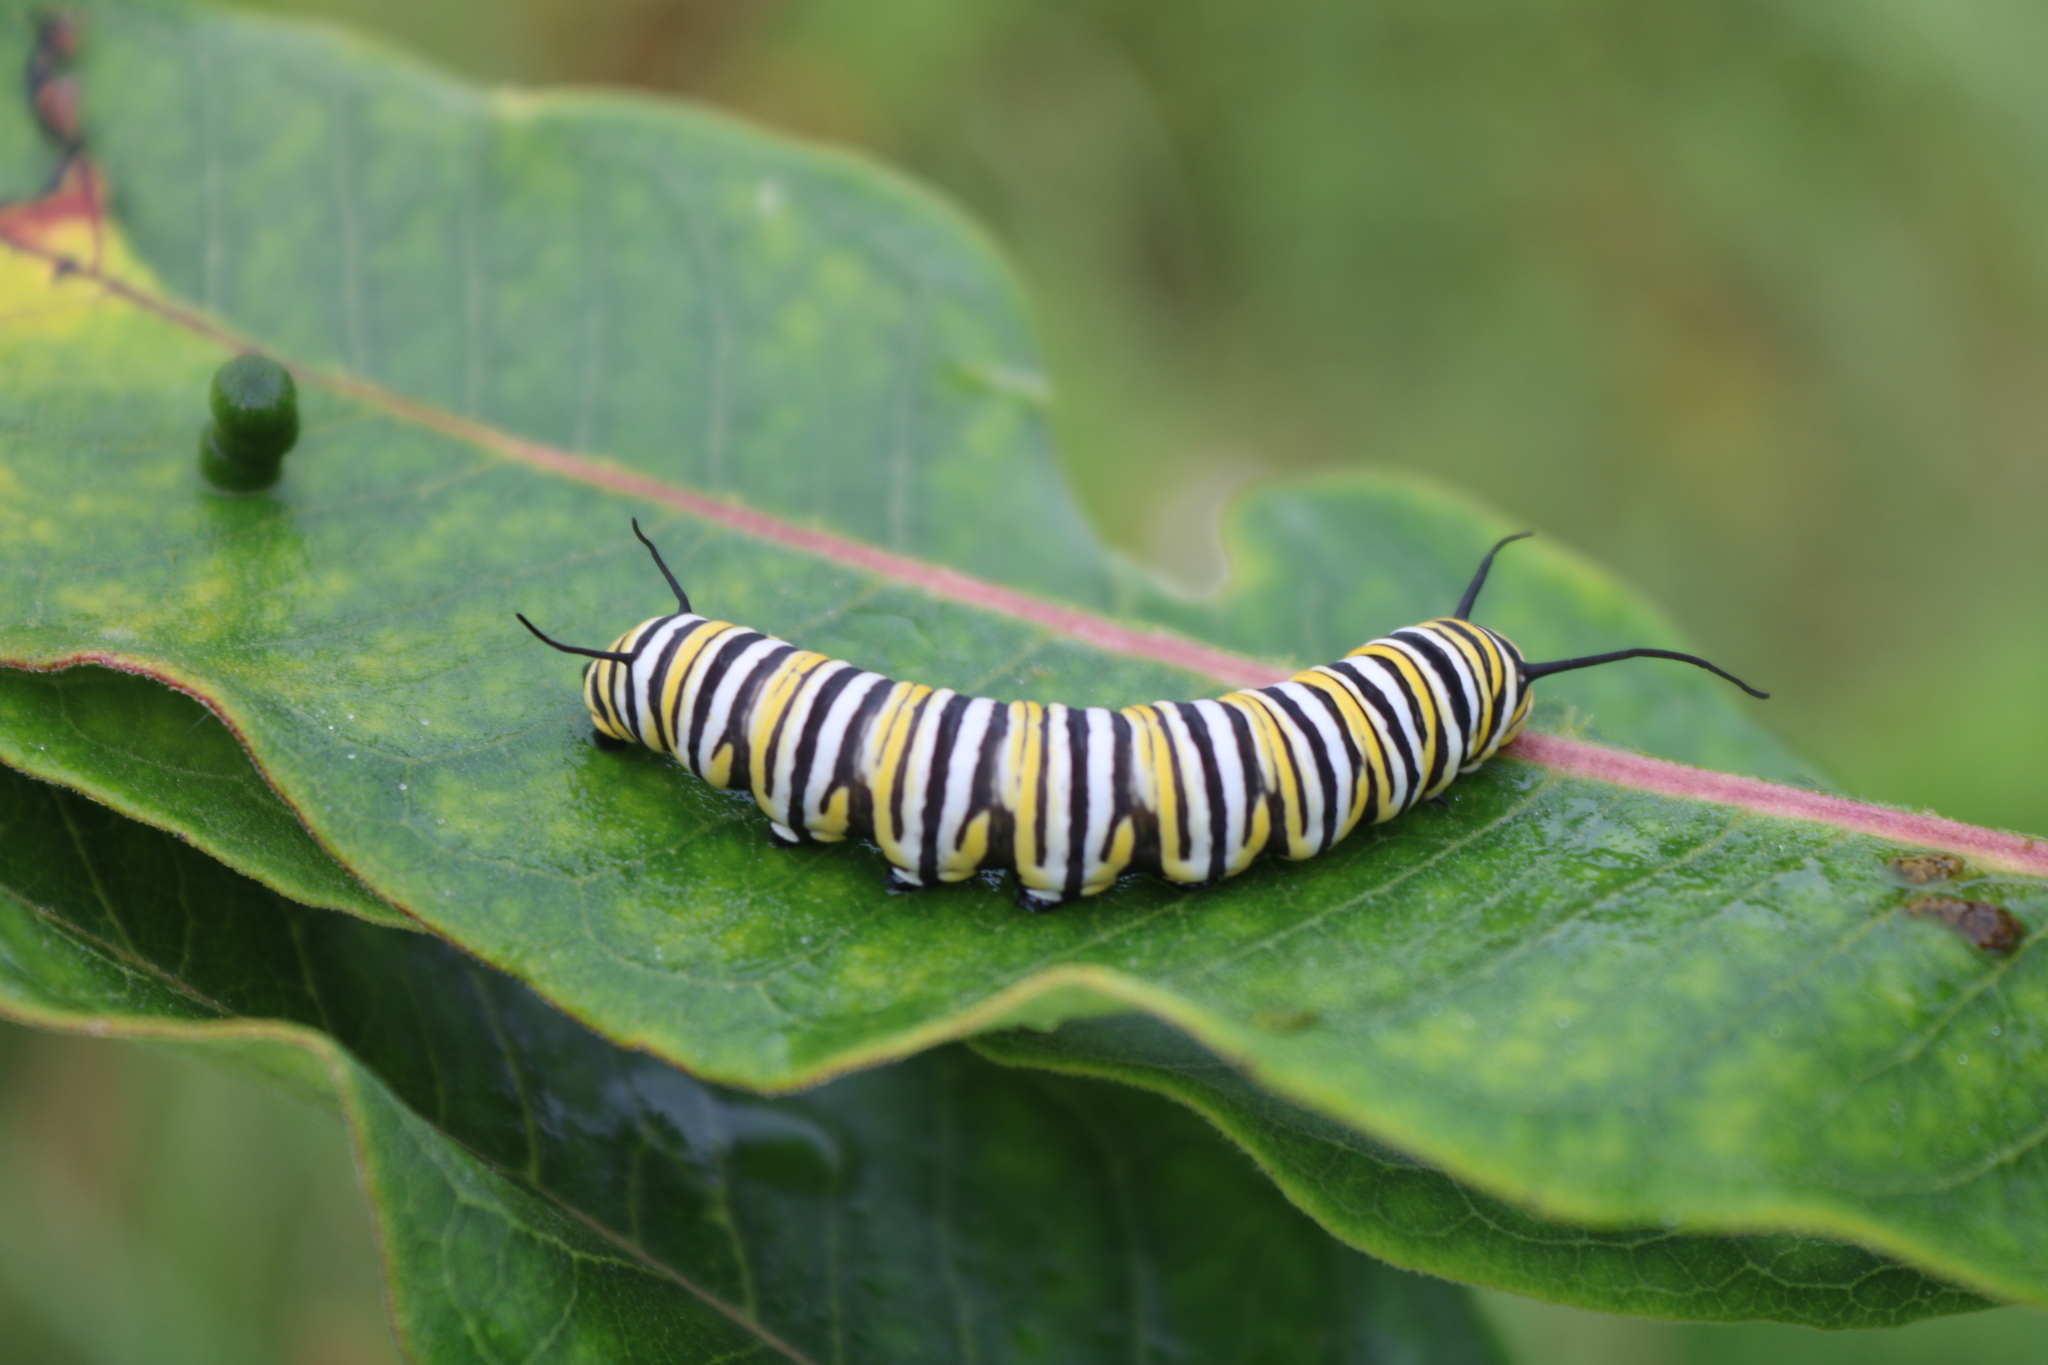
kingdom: Animalia
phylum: Arthropoda
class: Insecta
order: Lepidoptera
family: Nymphalidae
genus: Danaus
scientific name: Danaus plexippus
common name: Monarch
